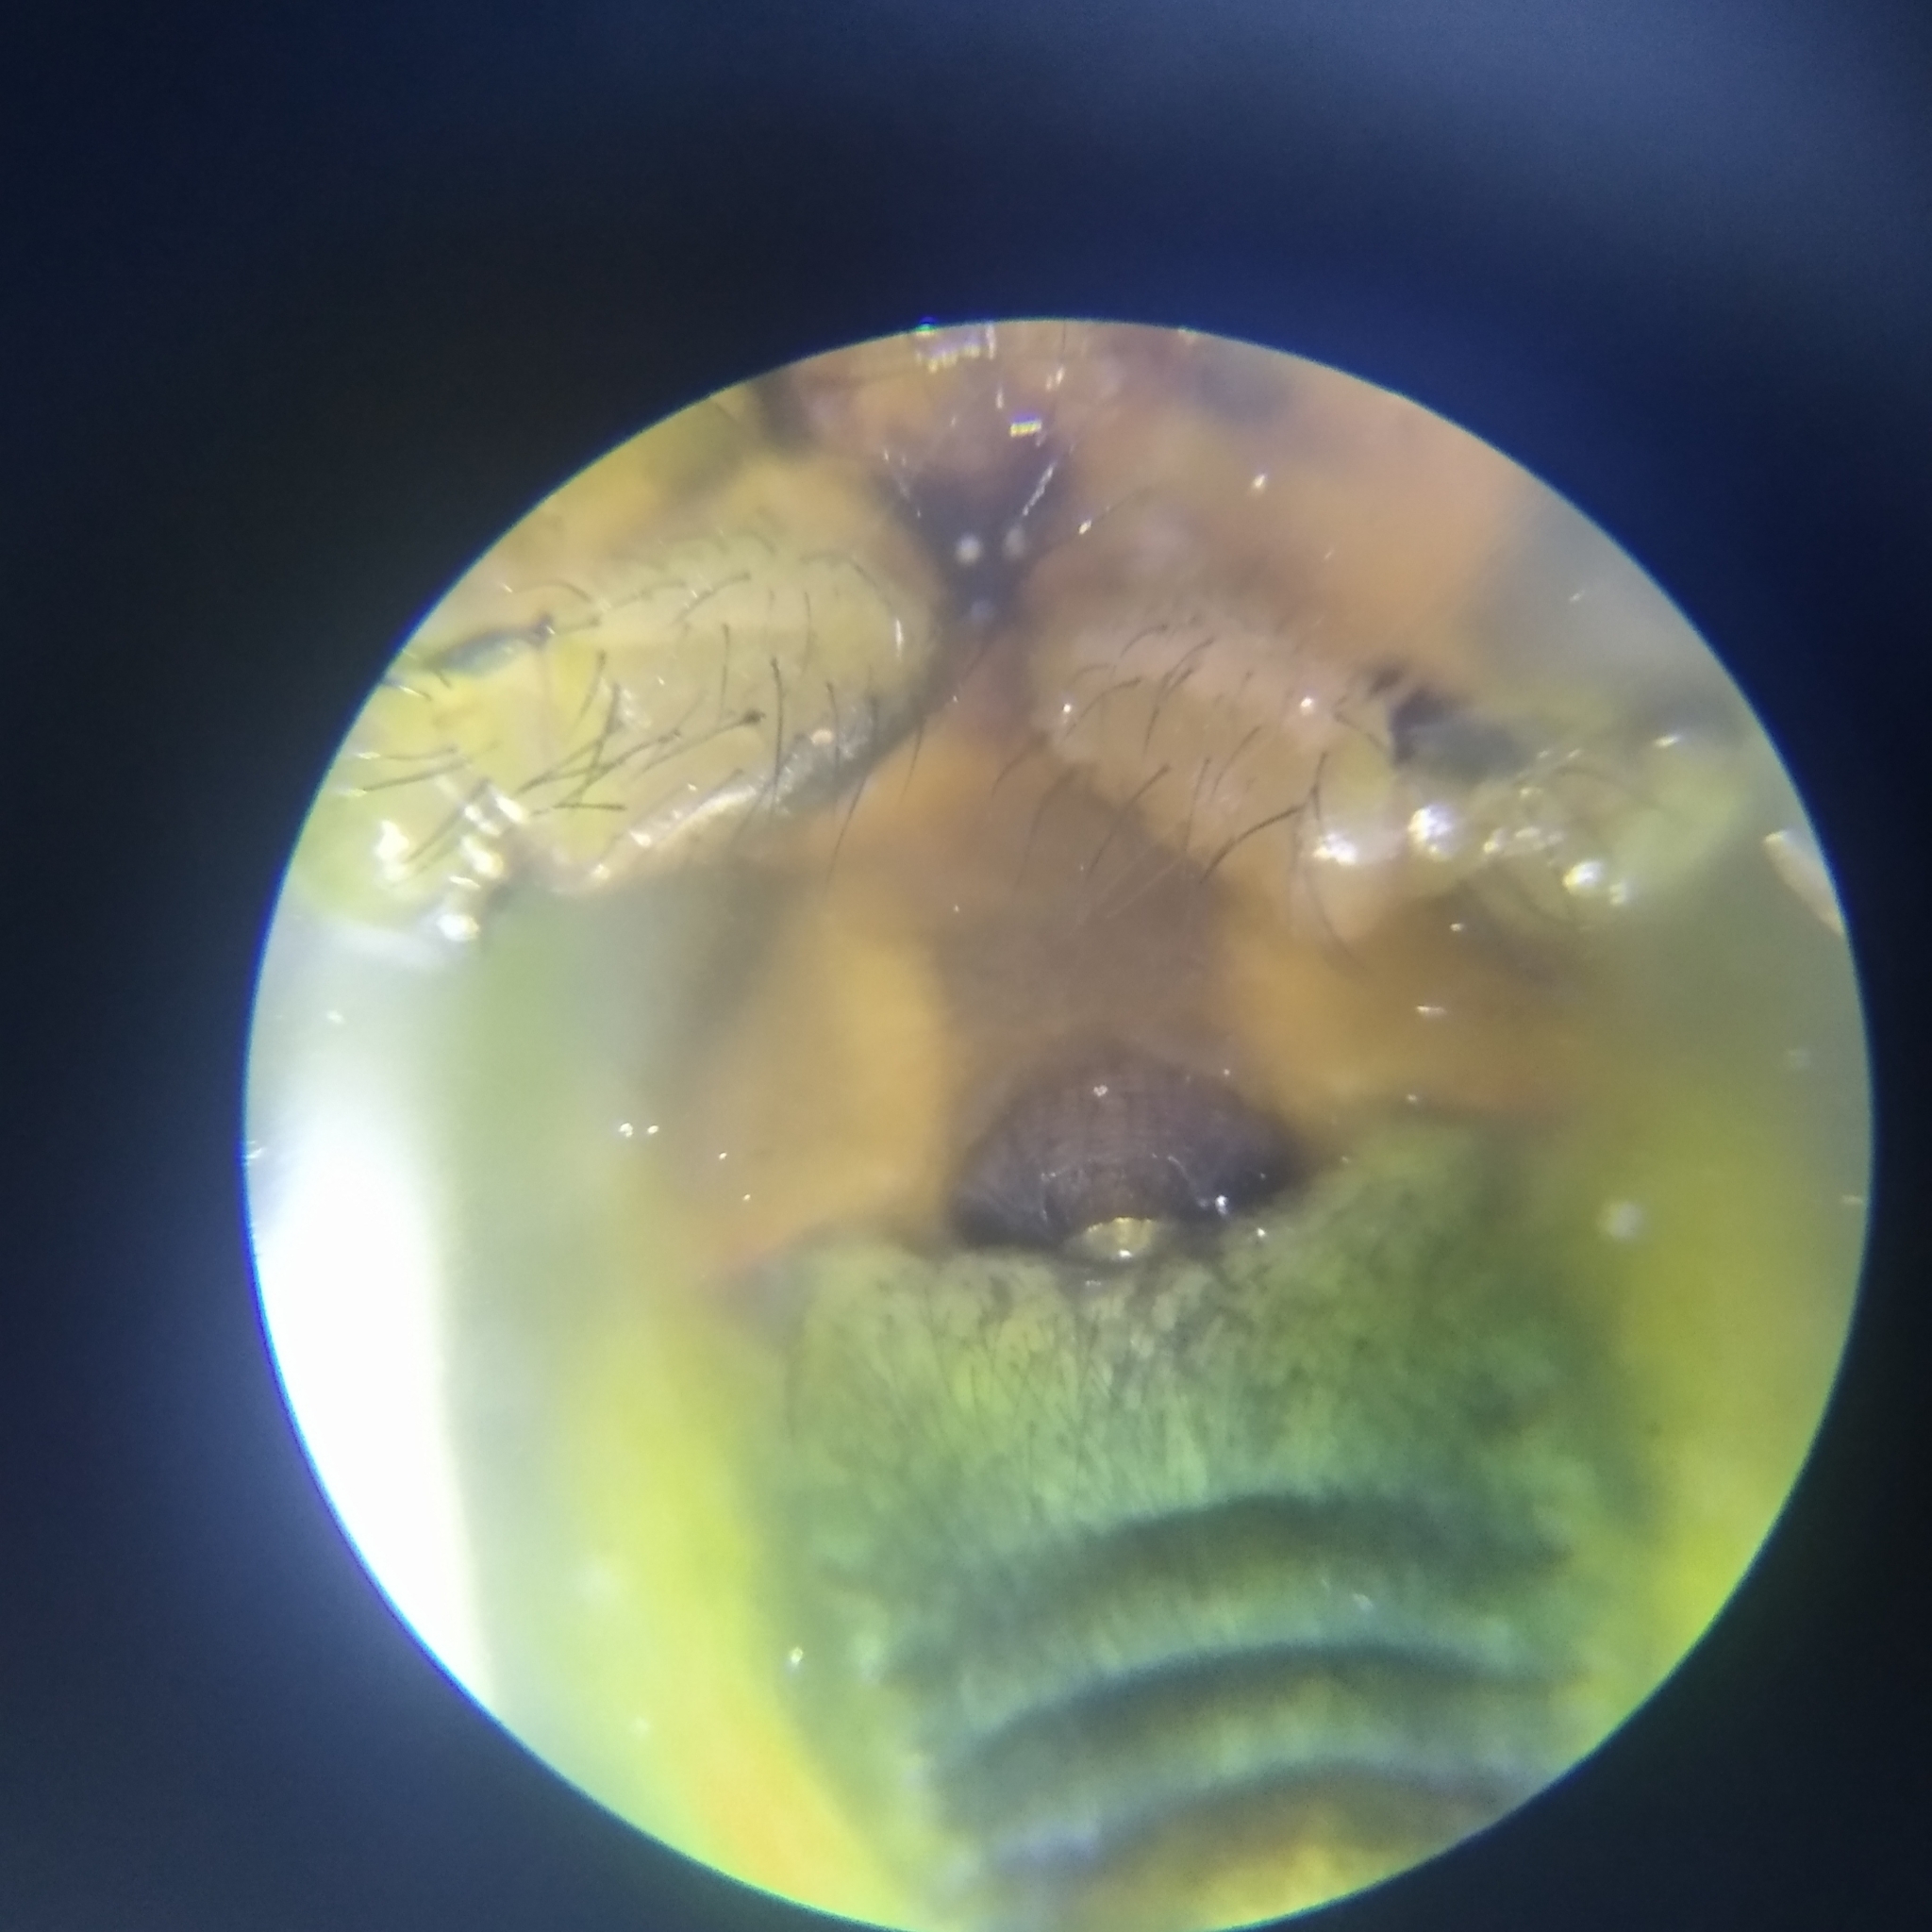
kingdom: Animalia
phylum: Arthropoda
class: Arachnida
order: Araneae
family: Araneidae
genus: Araniella
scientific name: Araniella cucurbitina
